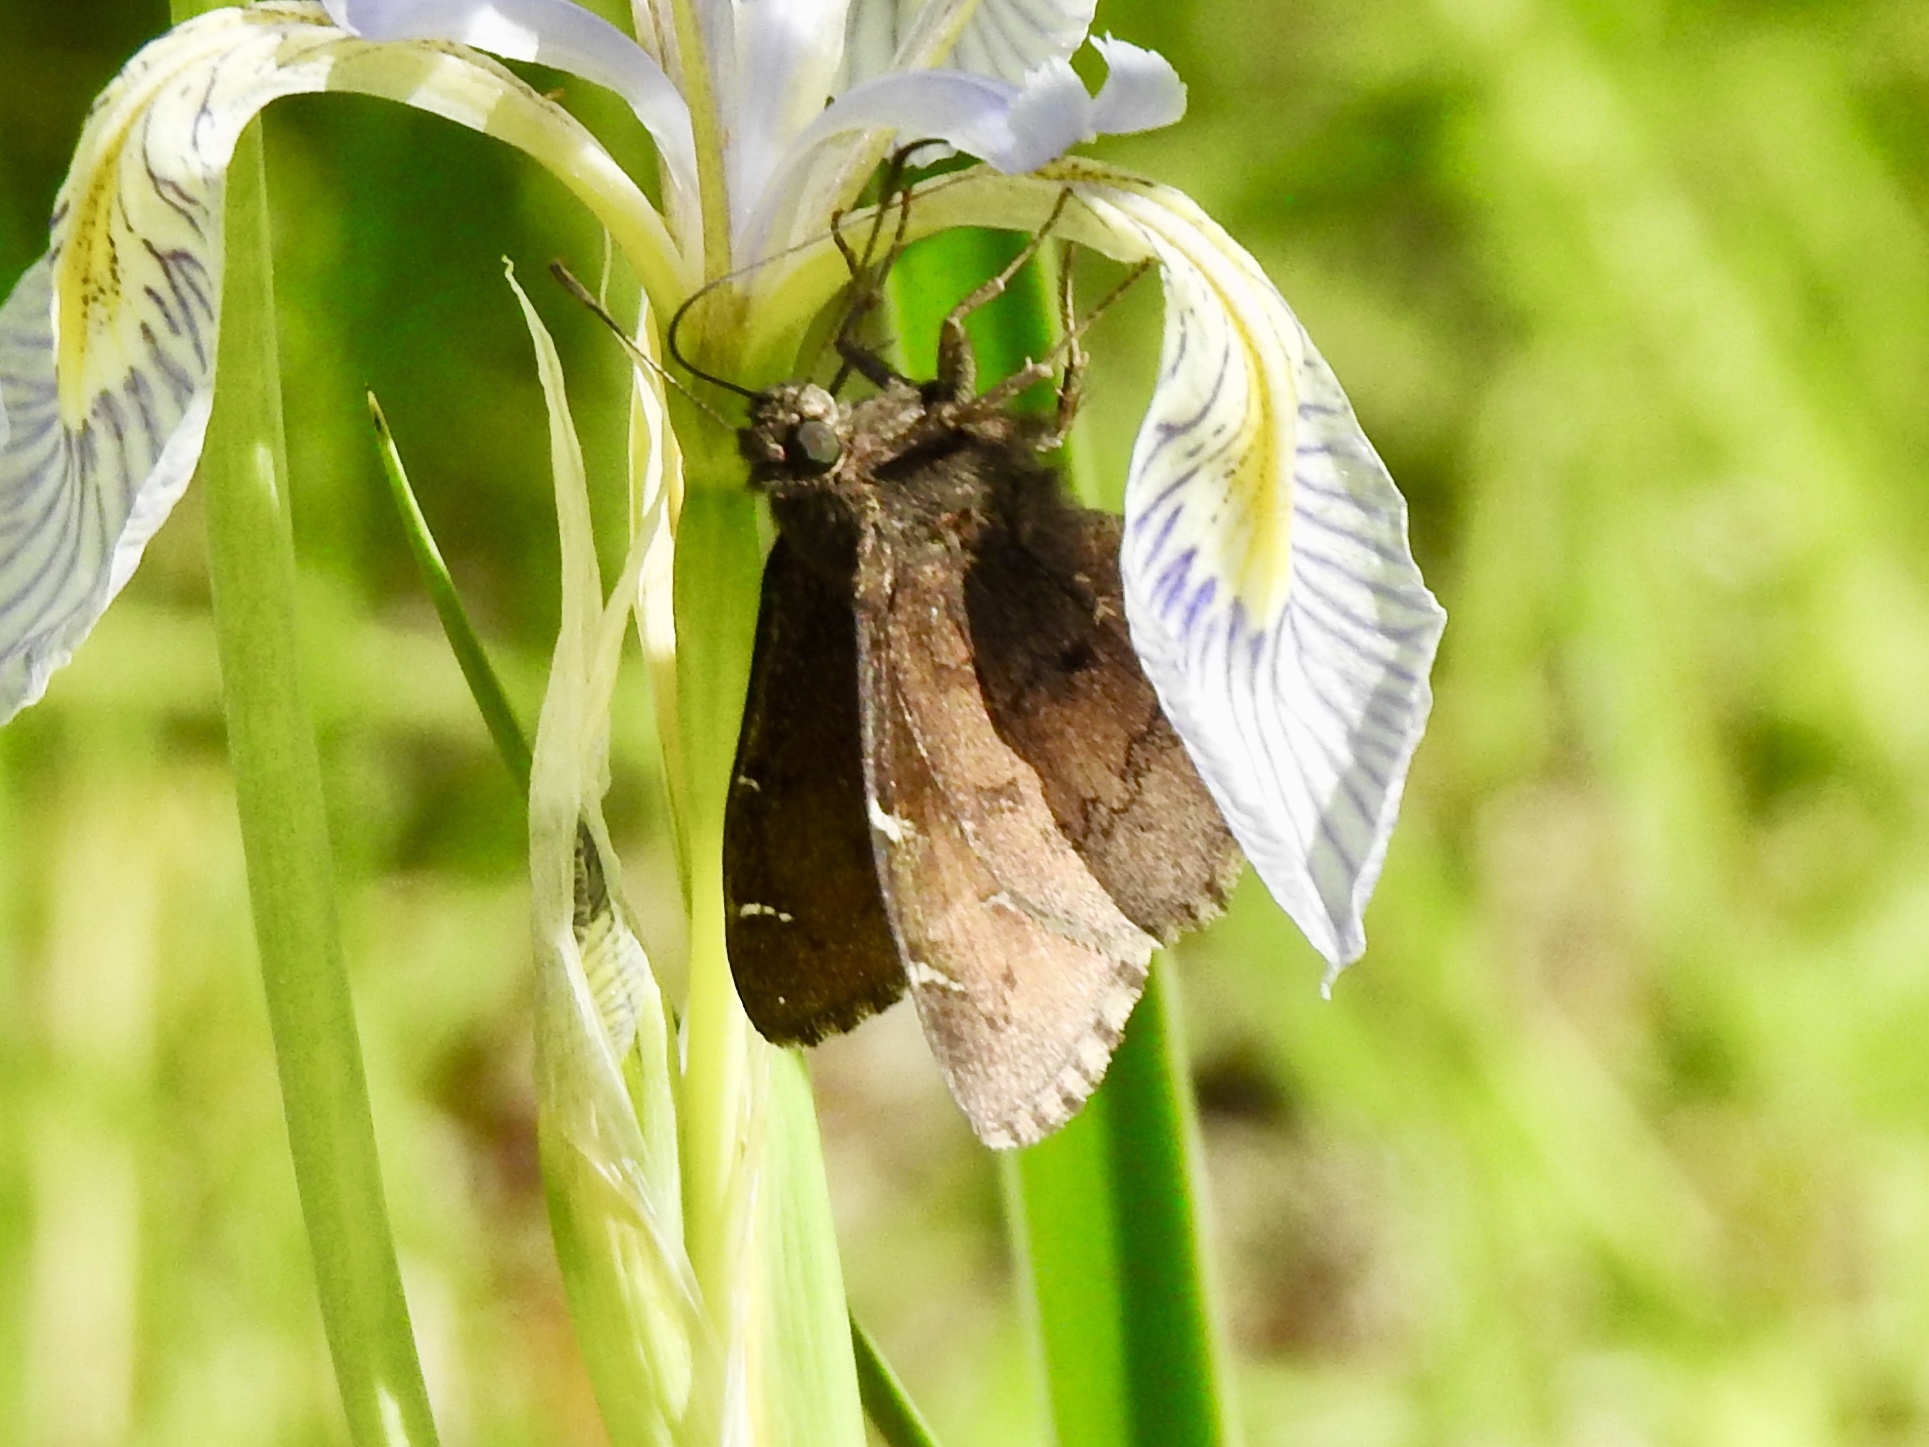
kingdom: Animalia
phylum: Arthropoda
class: Insecta
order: Lepidoptera
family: Hesperiidae
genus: Thorybes
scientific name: Thorybes pylades
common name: Northern cloudywing
